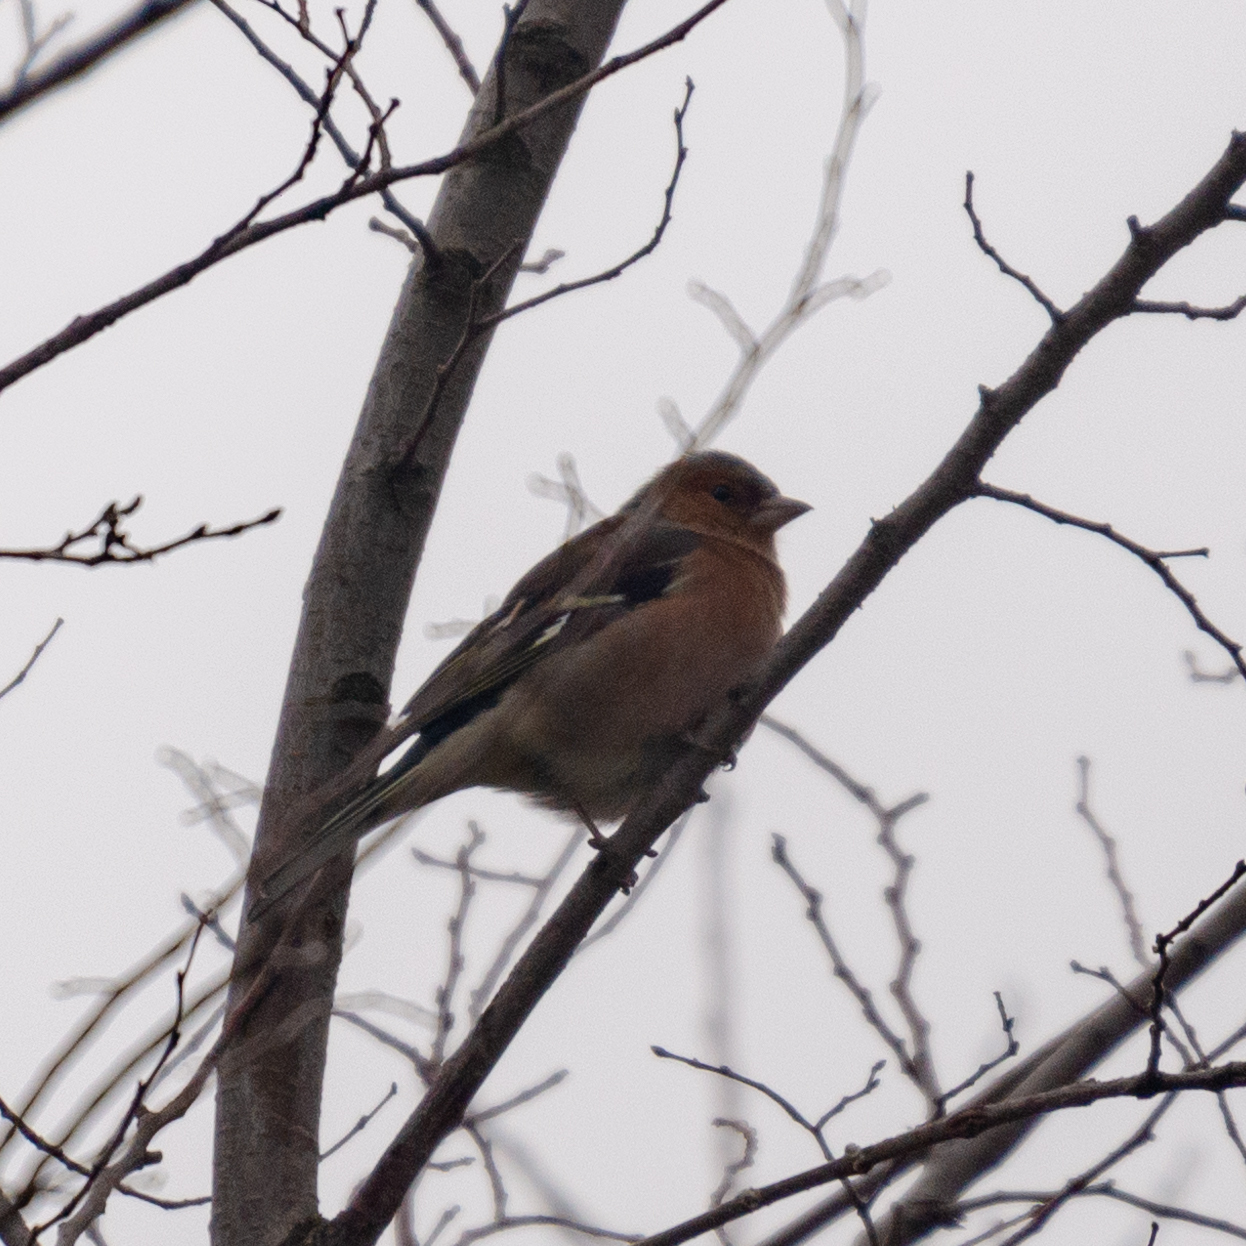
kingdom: Animalia
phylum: Chordata
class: Aves
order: Passeriformes
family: Fringillidae
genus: Fringilla
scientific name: Fringilla coelebs
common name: Common chaffinch
